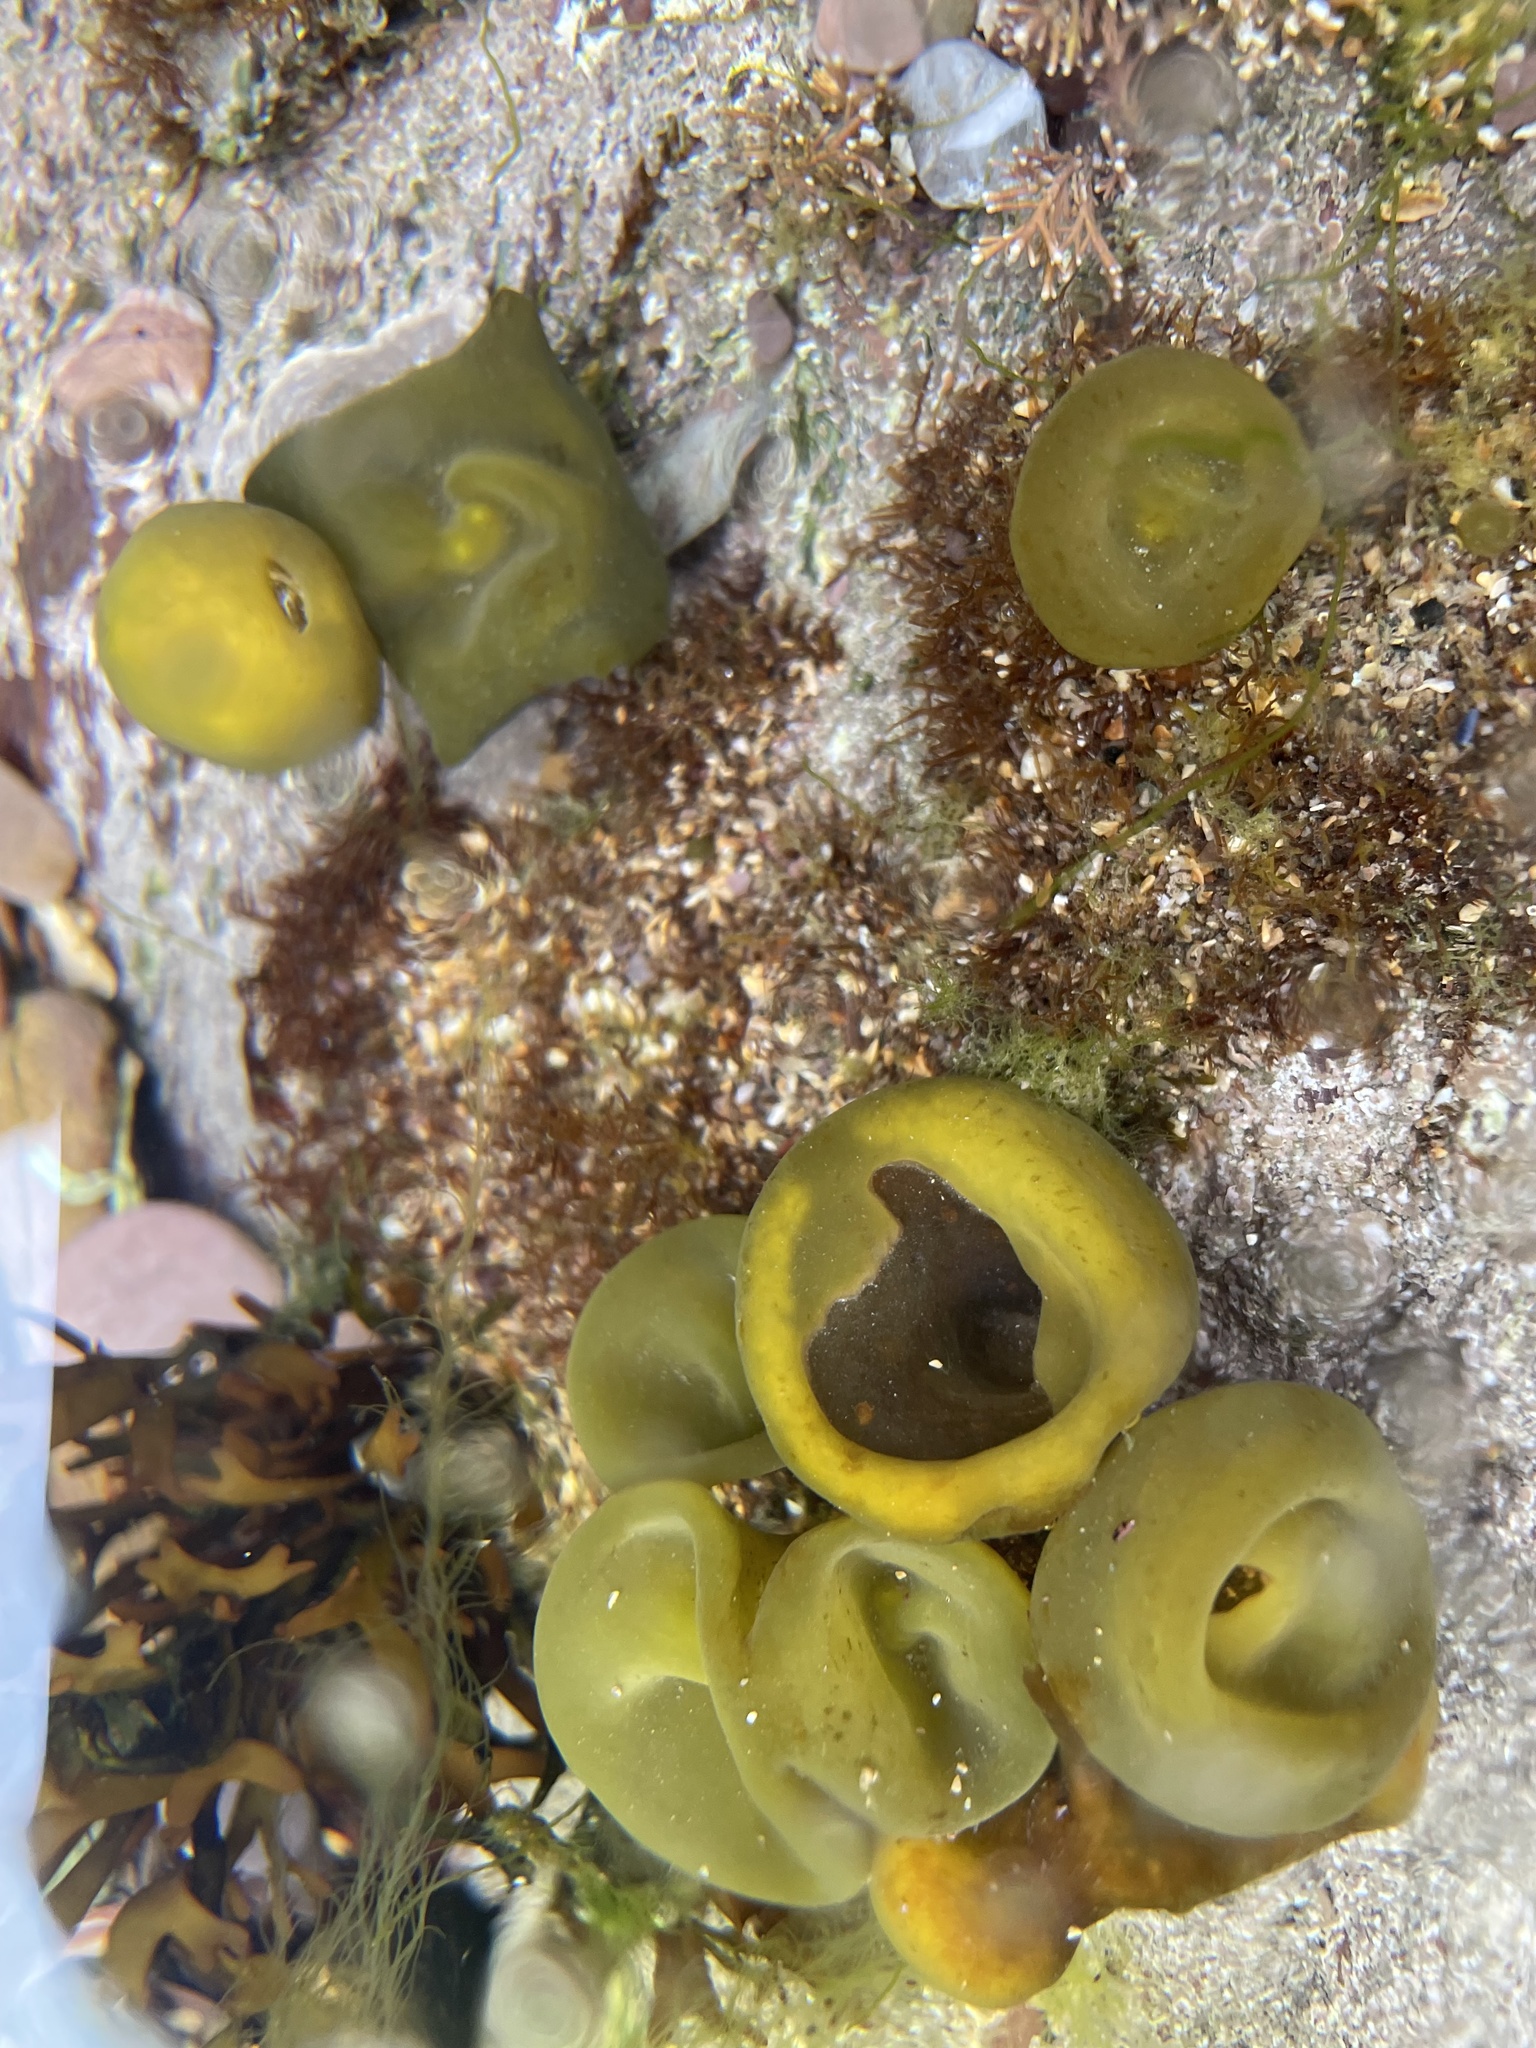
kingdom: Chromista
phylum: Ochrophyta
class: Phaeophyceae
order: Fucales
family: Himanthaliaceae
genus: Himanthalia
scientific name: Himanthalia elongata
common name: Sea-thong
